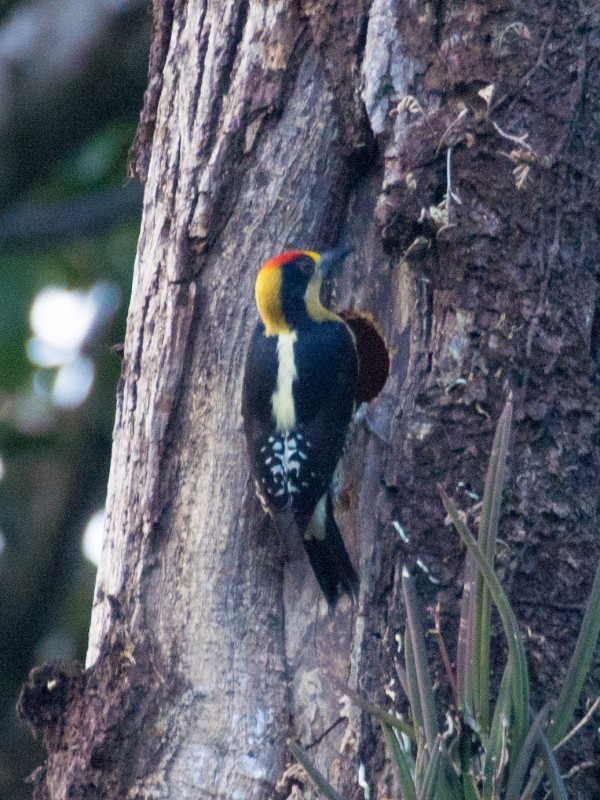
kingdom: Animalia
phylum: Chordata
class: Aves
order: Piciformes
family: Picidae
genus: Melanerpes
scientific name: Melanerpes chrysauchen
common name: Golden-naped woodpecker
